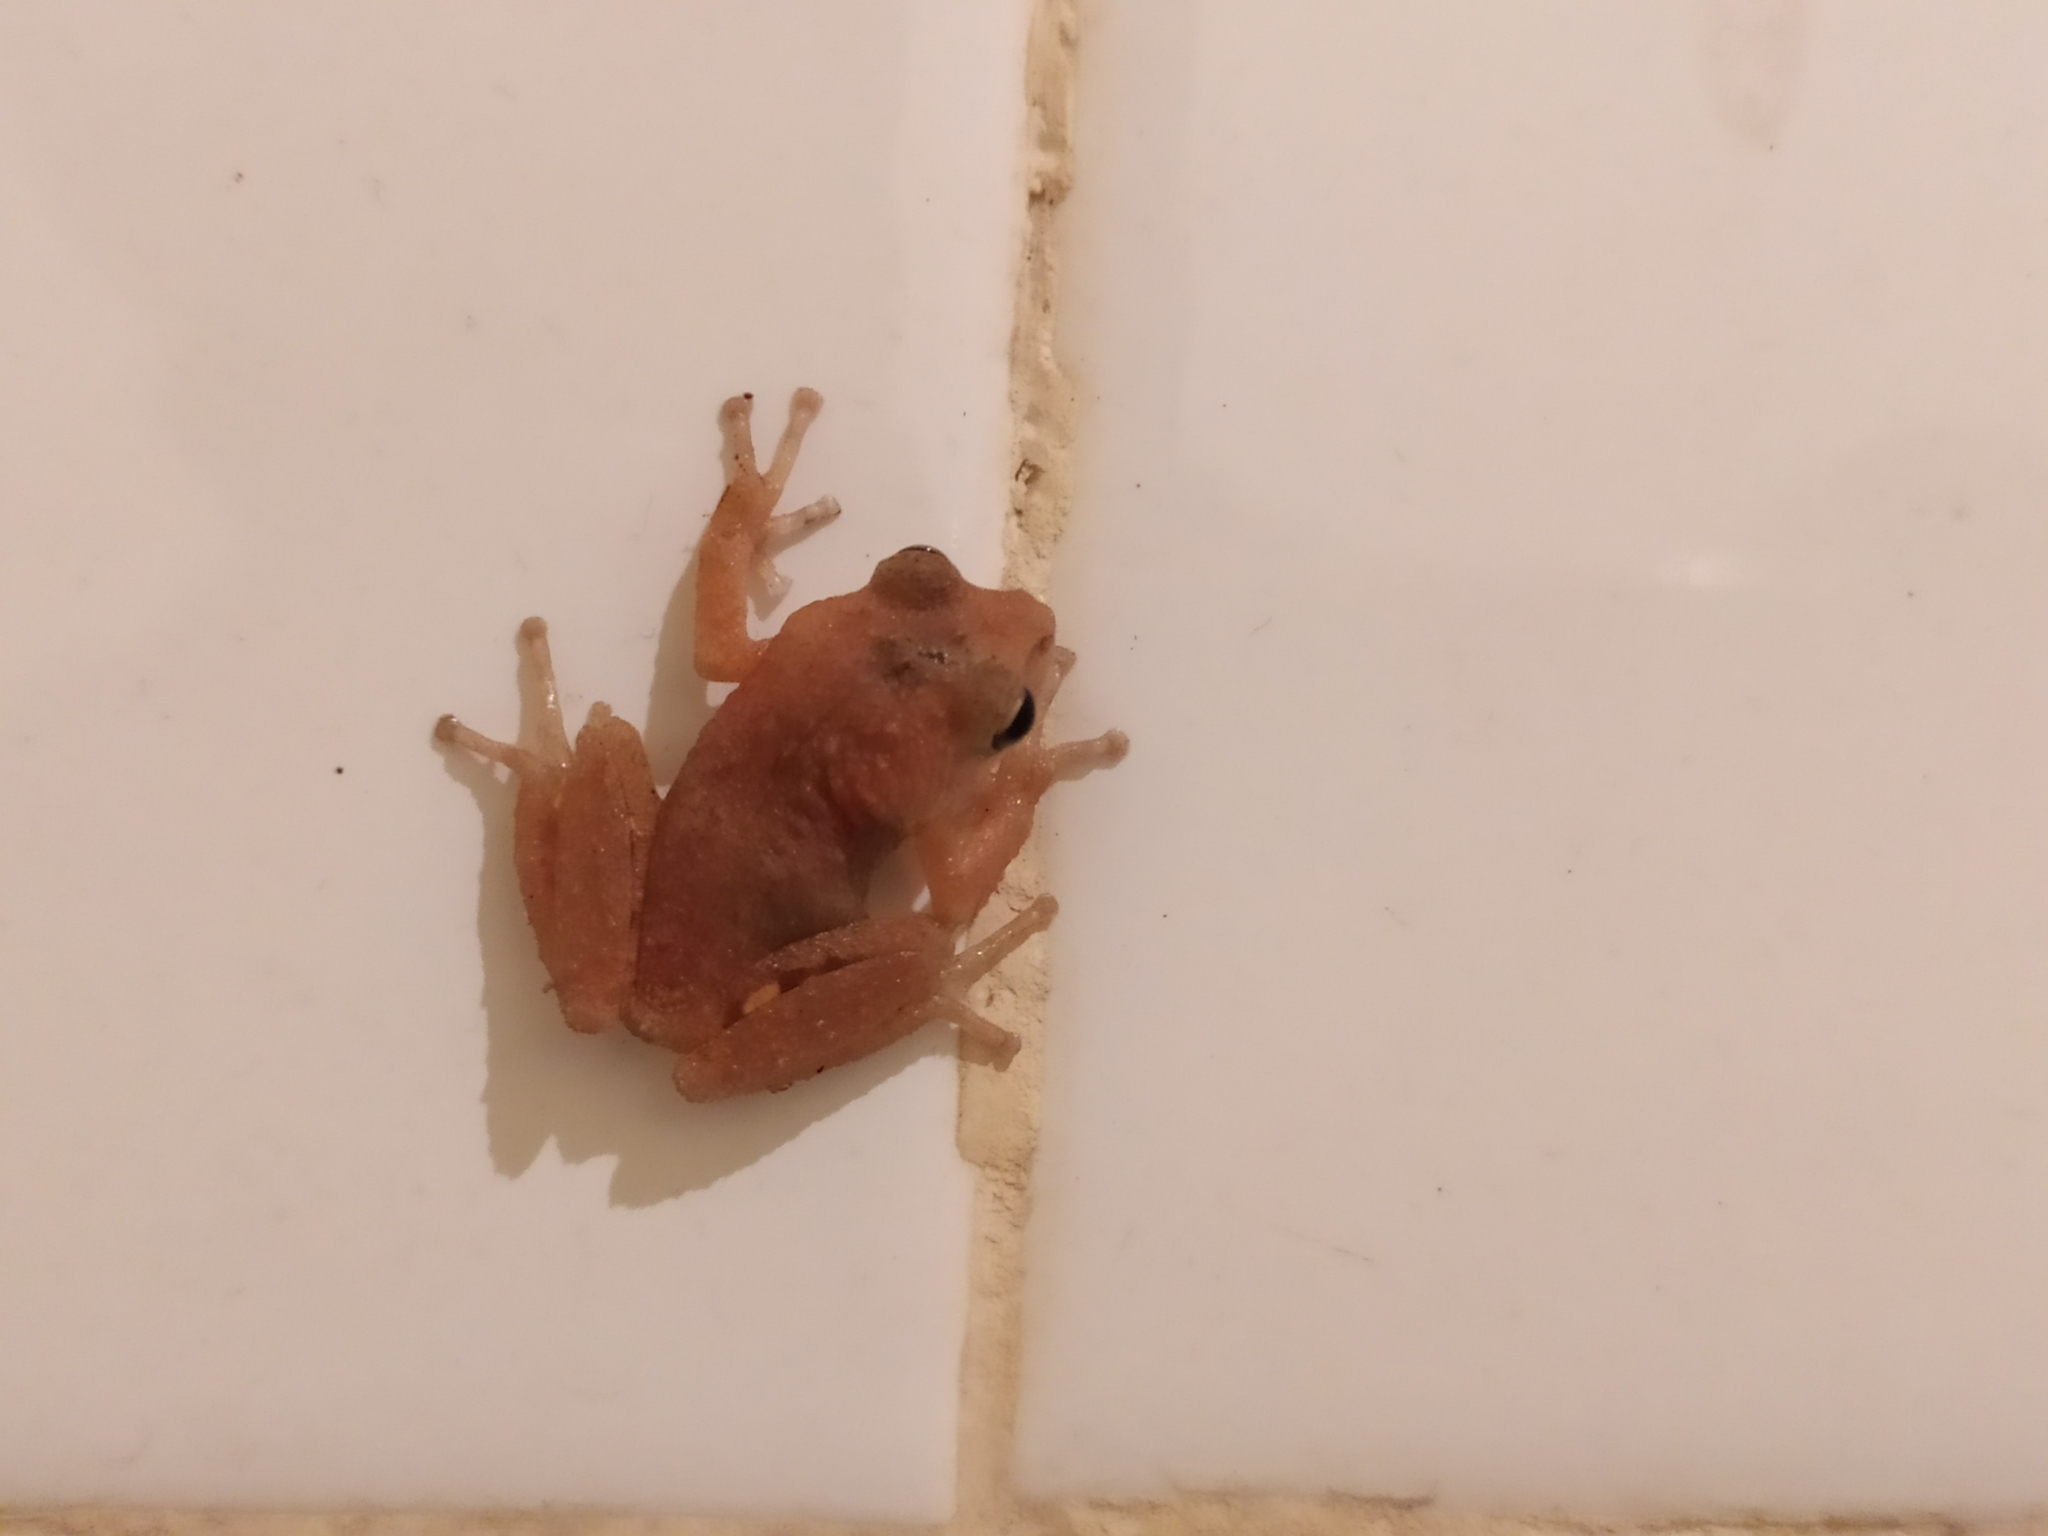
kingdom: Animalia
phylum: Chordata
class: Amphibia
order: Anura
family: Rhacophoridae
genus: Raorchestes
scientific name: Raorchestes charius
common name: Seshachar's bush frog
